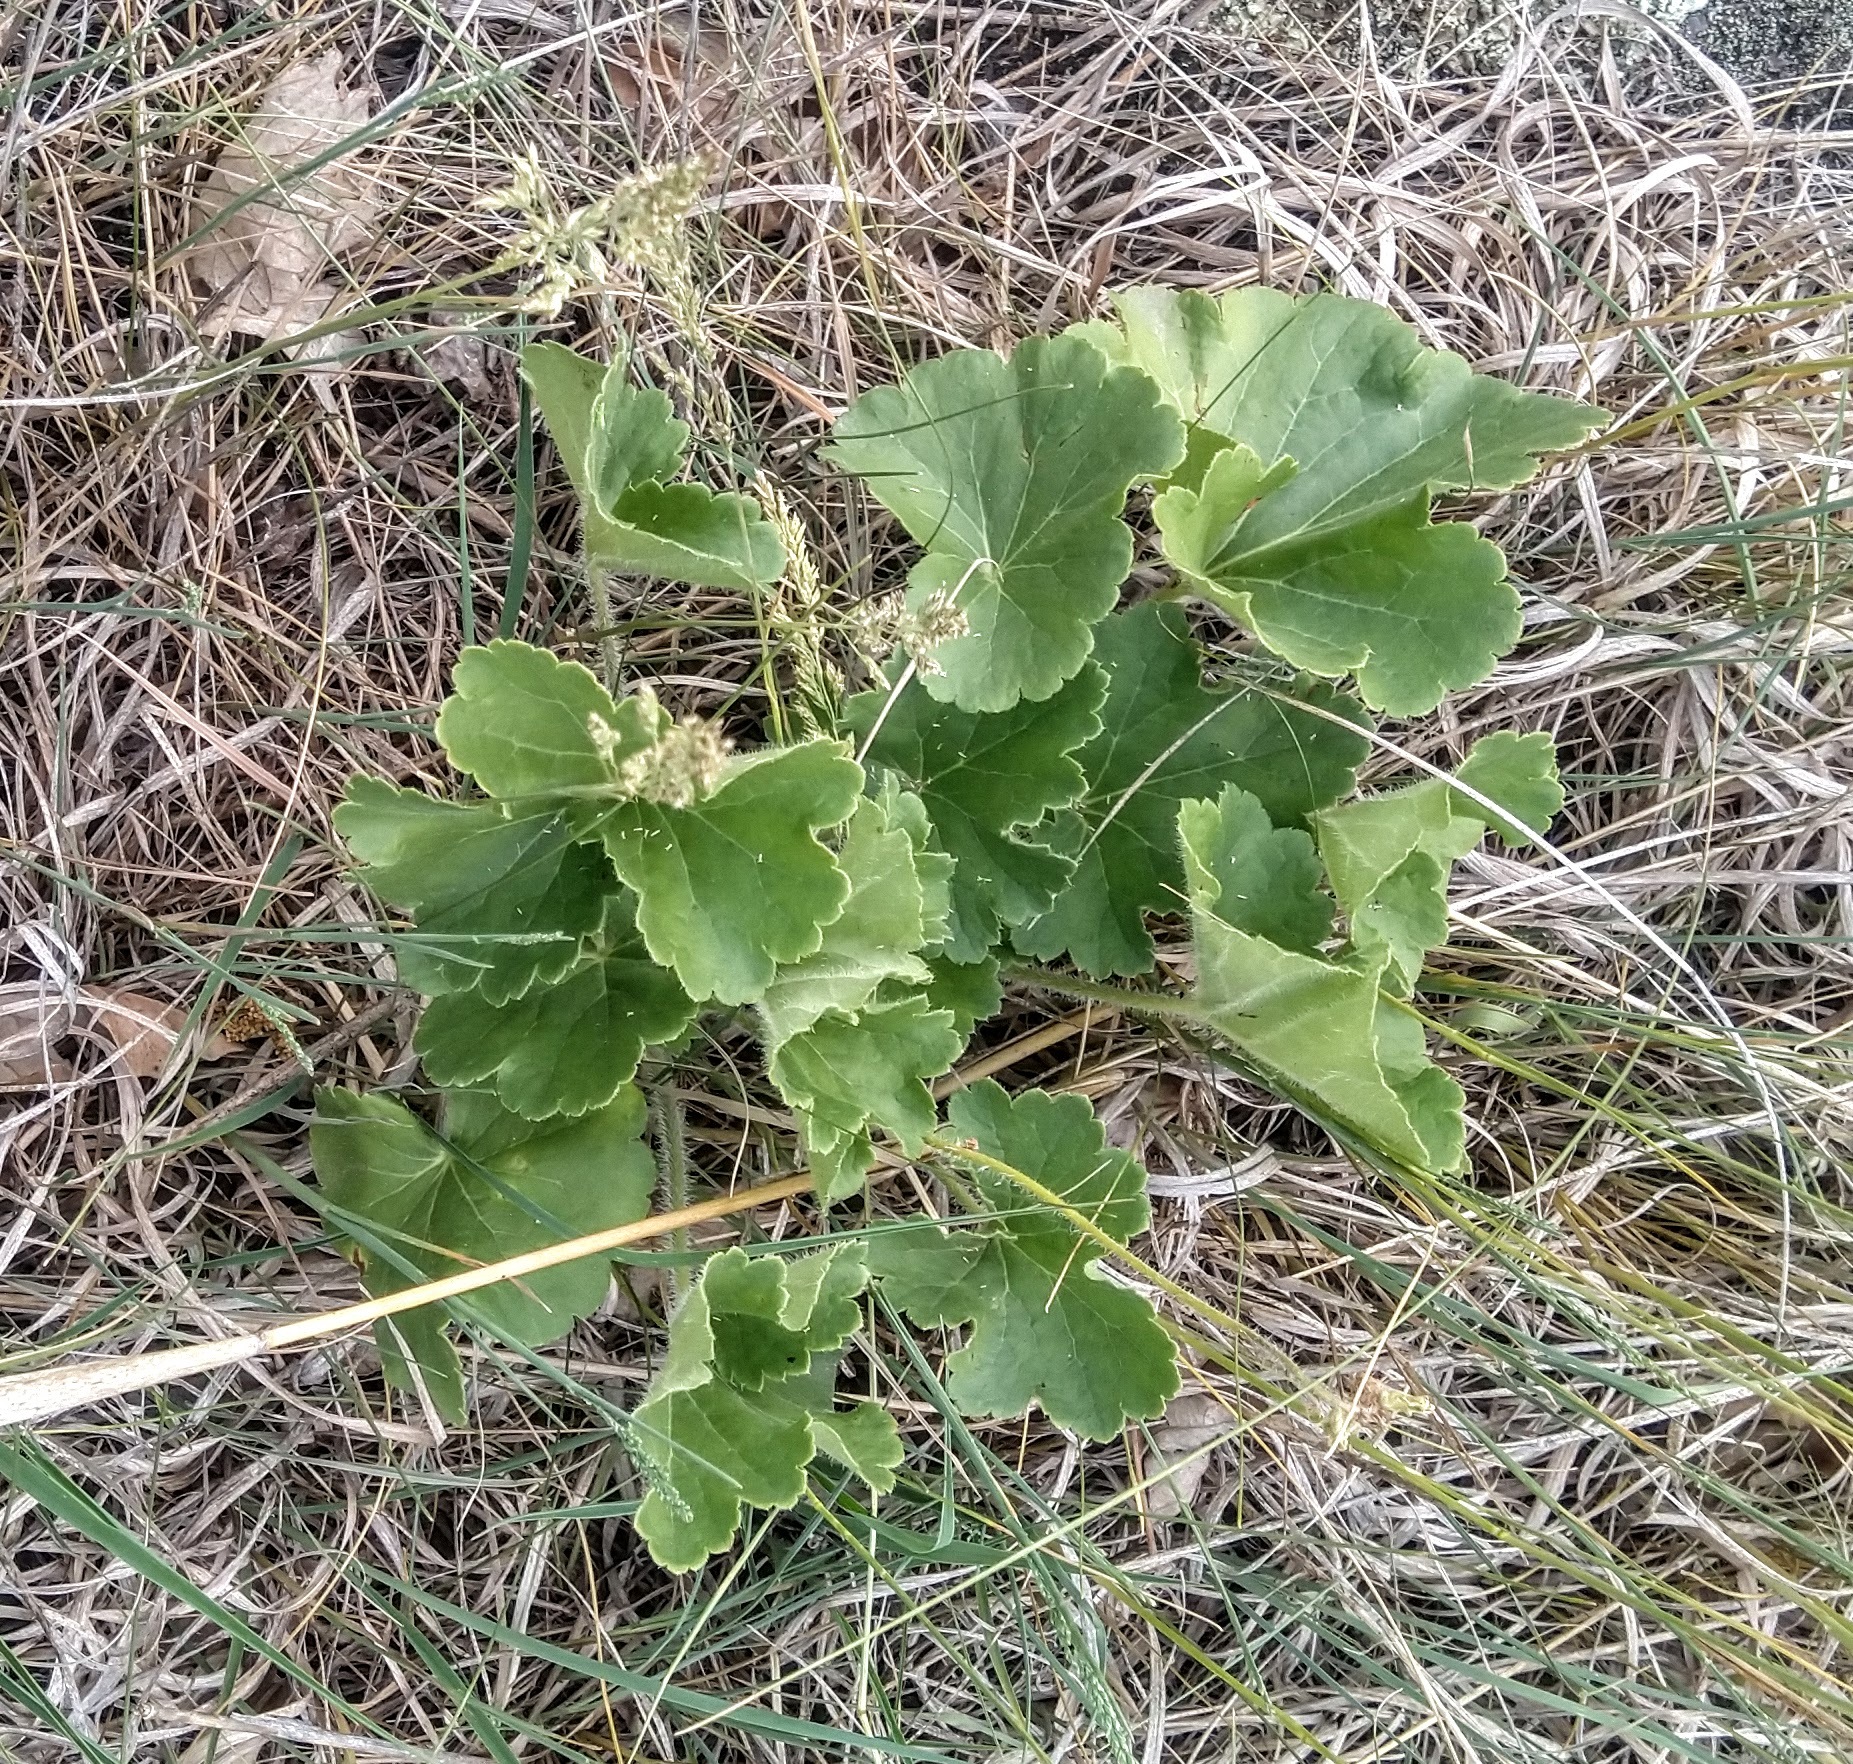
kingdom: Plantae
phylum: Tracheophyta
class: Magnoliopsida
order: Saxifragales
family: Saxifragaceae
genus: Heuchera
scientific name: Heuchera richardsonii
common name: Richardson's alumroot
